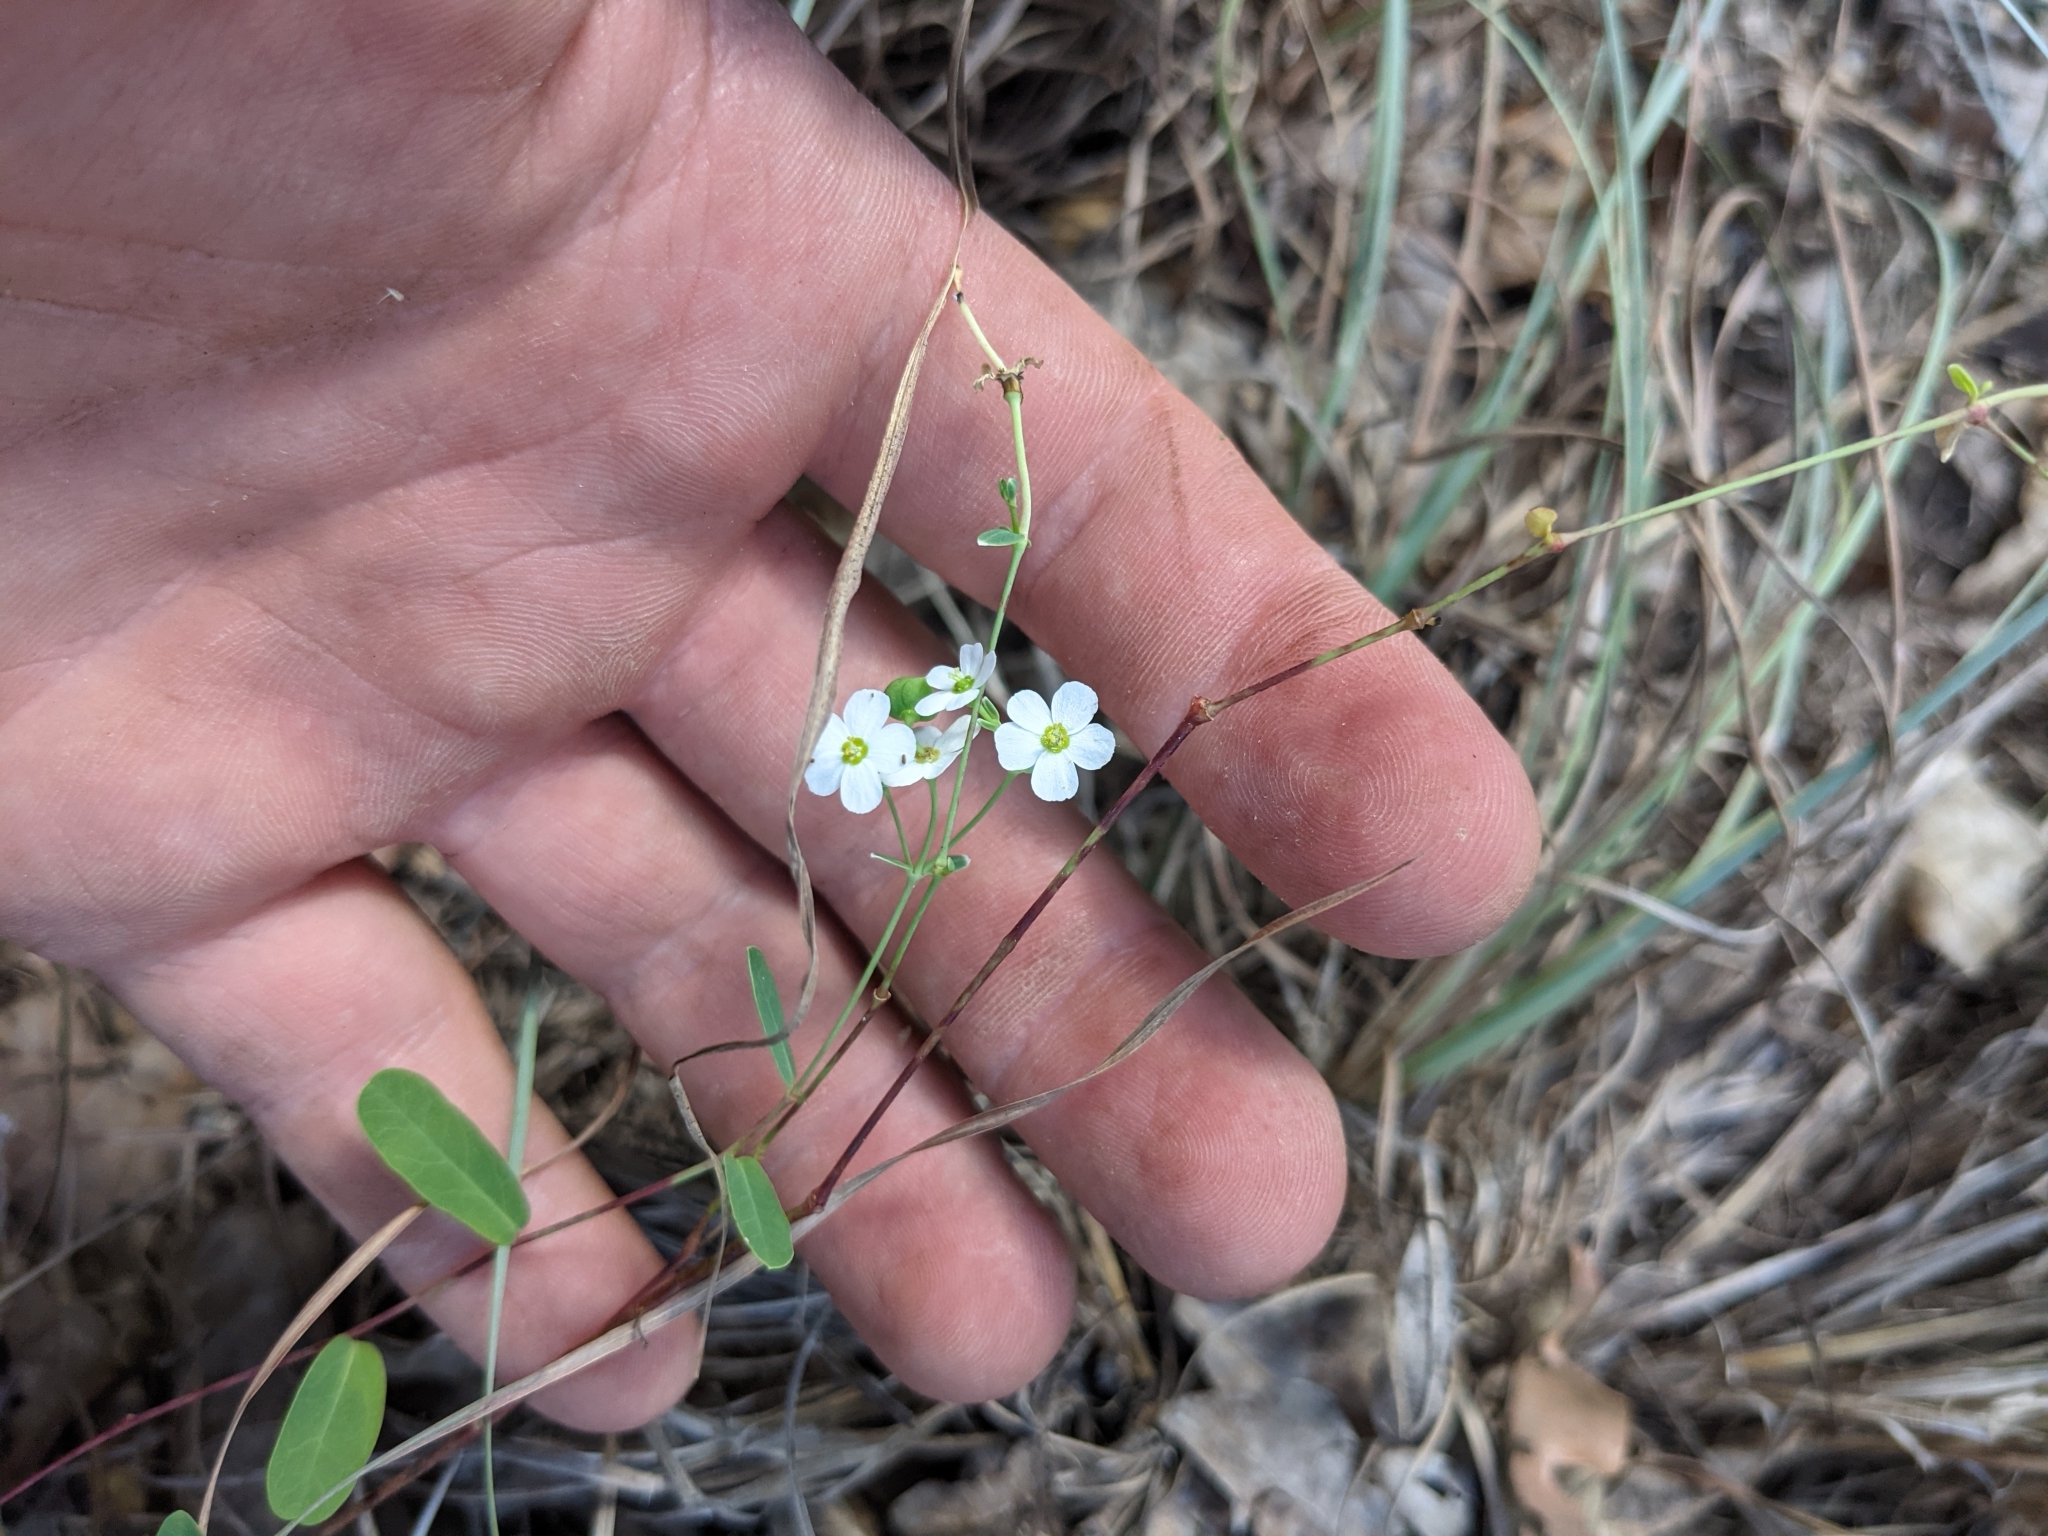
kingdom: Plantae
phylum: Tracheophyta
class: Magnoliopsida
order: Malpighiales
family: Euphorbiaceae
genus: Euphorbia
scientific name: Euphorbia corollata
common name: Flowering spurge
